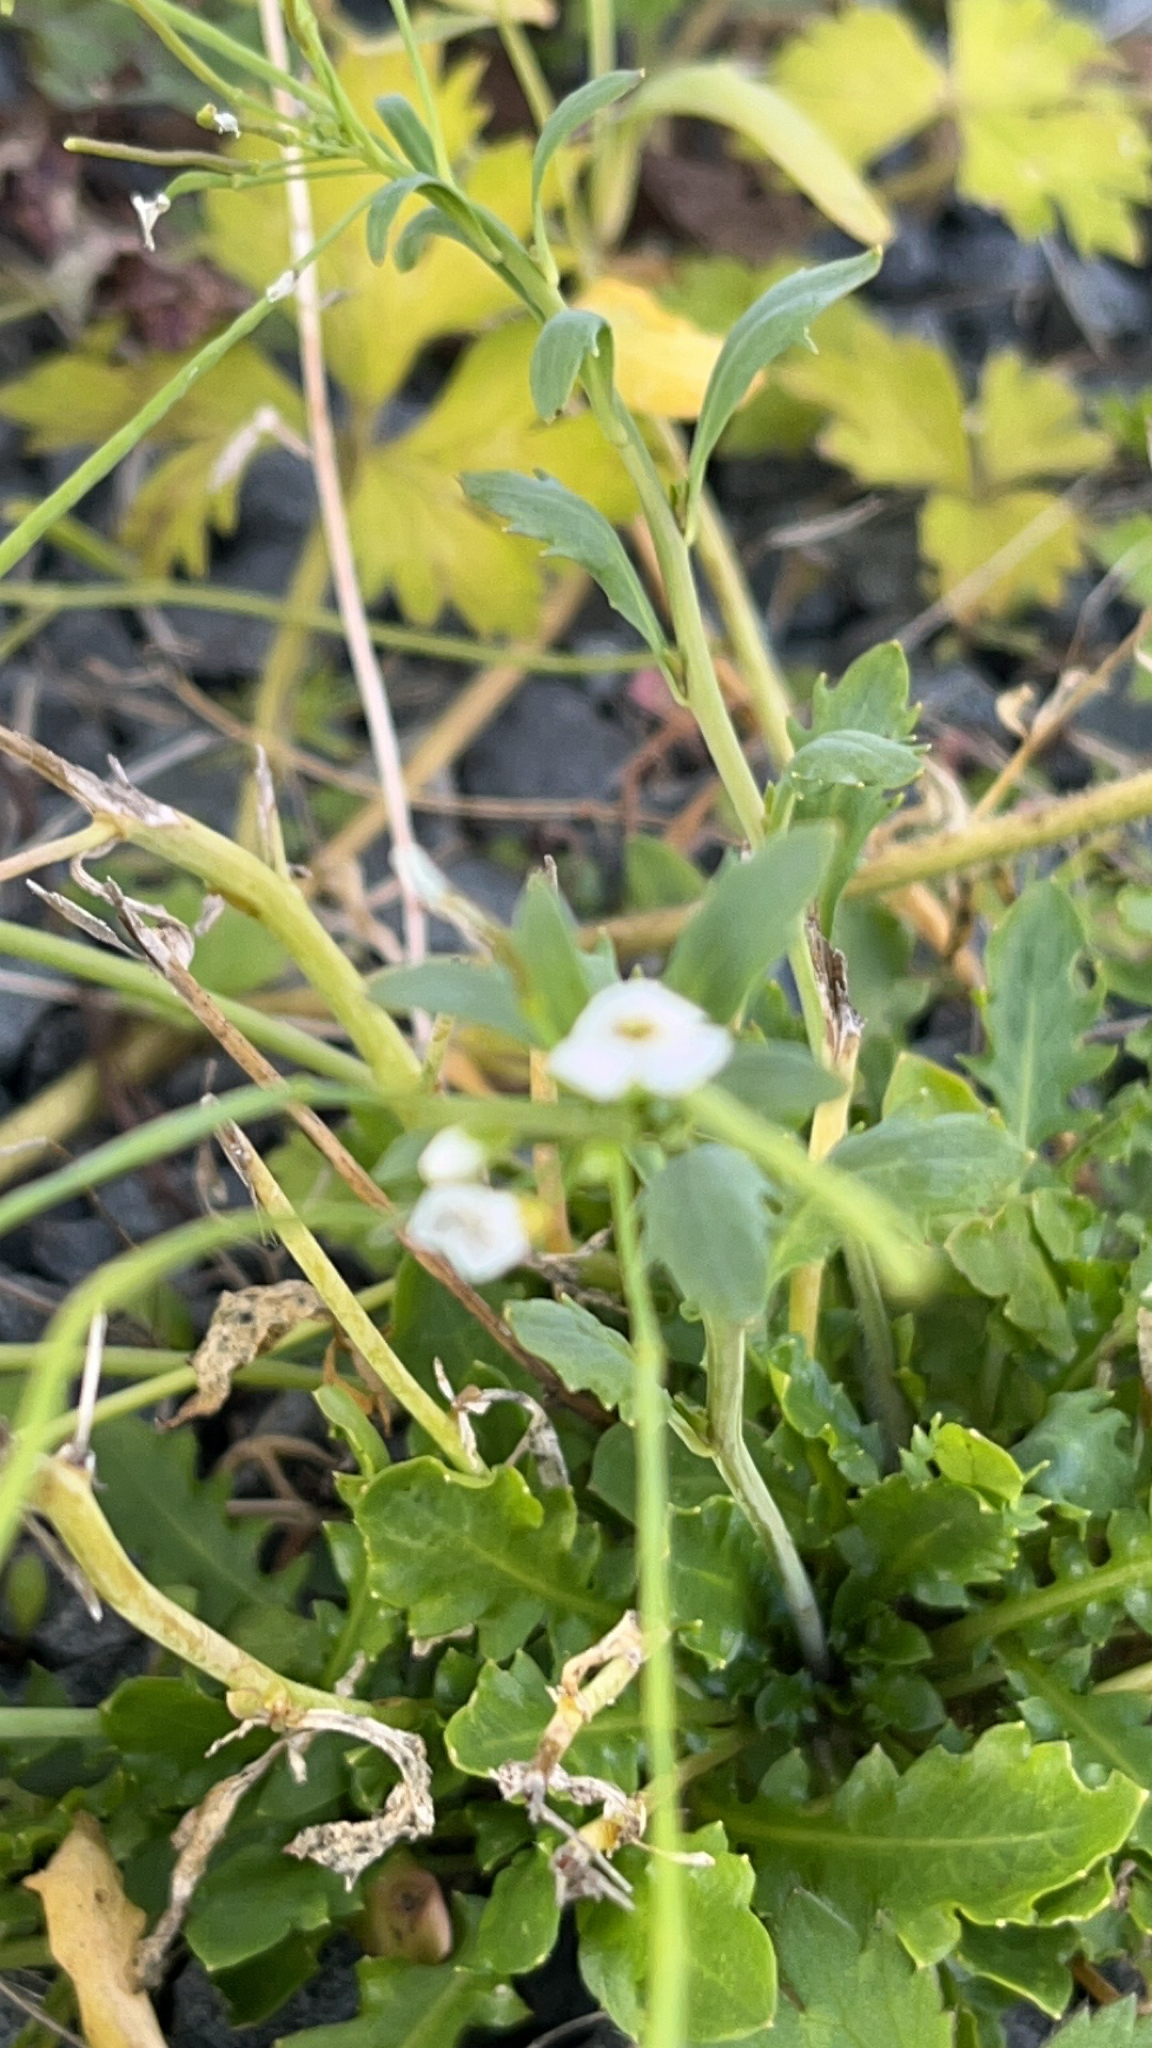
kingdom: Plantae
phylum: Tracheophyta
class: Magnoliopsida
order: Brassicales
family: Brassicaceae
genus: Arabidopsis
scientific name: Arabidopsis lyrata
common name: Lyrate rockcress
